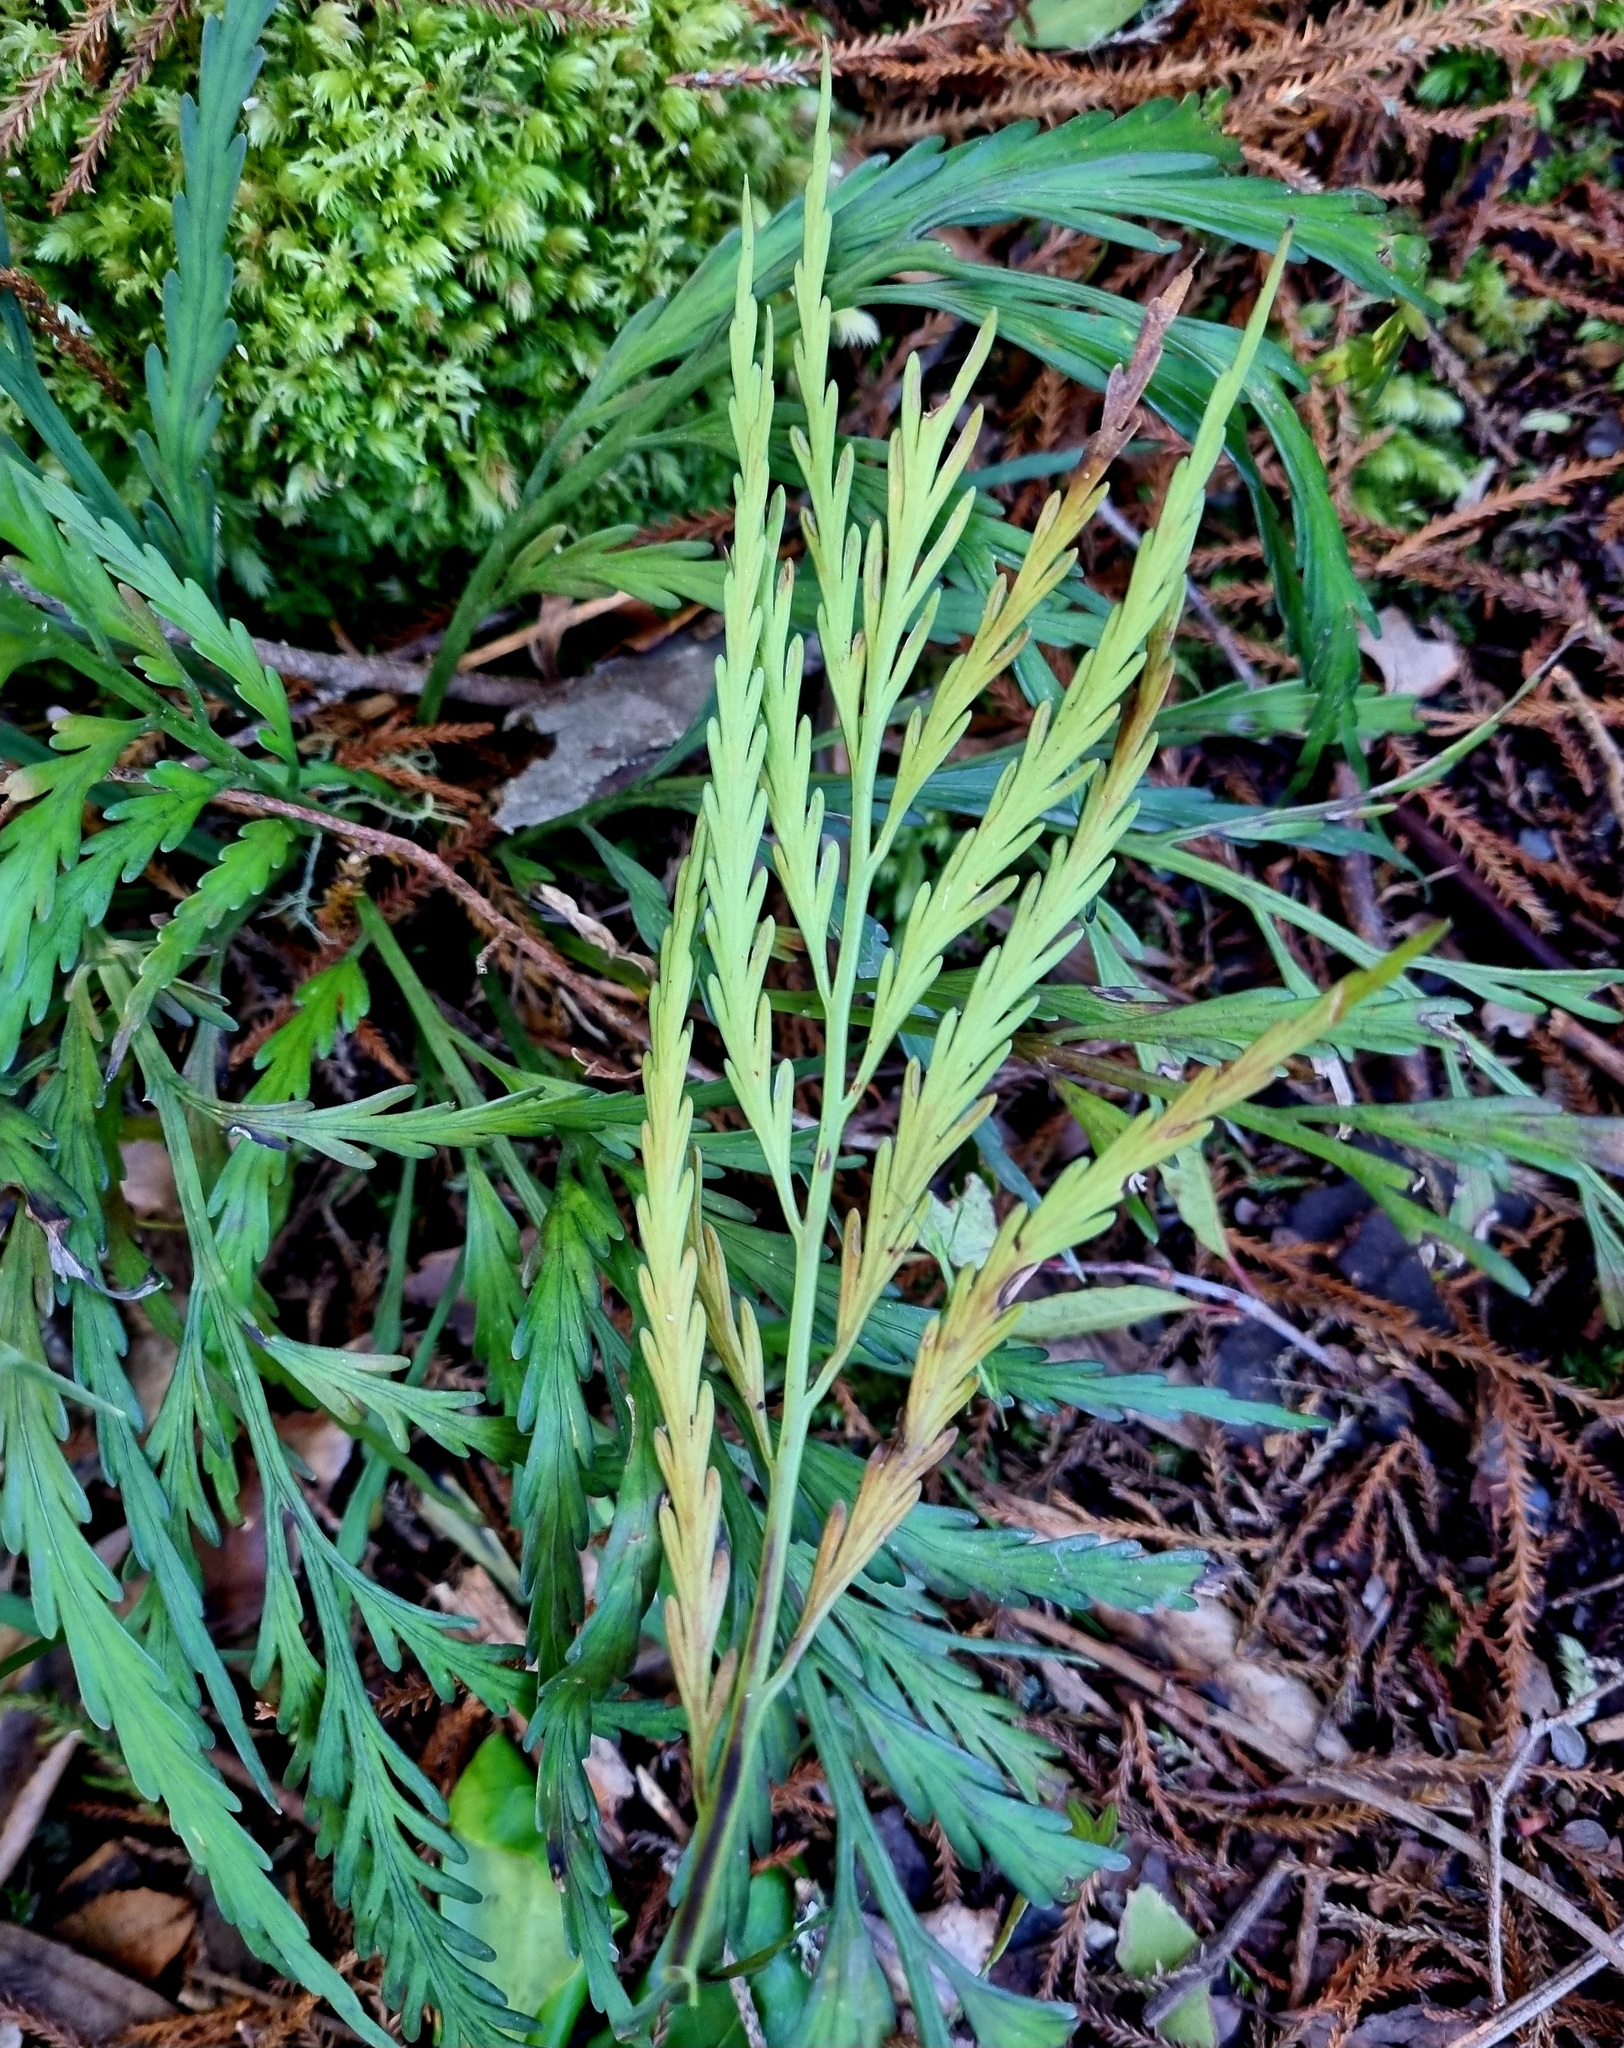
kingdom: Plantae
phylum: Tracheophyta
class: Polypodiopsida
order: Polypodiales
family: Aspleniaceae
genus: Asplenium
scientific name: Asplenium flaccidum
